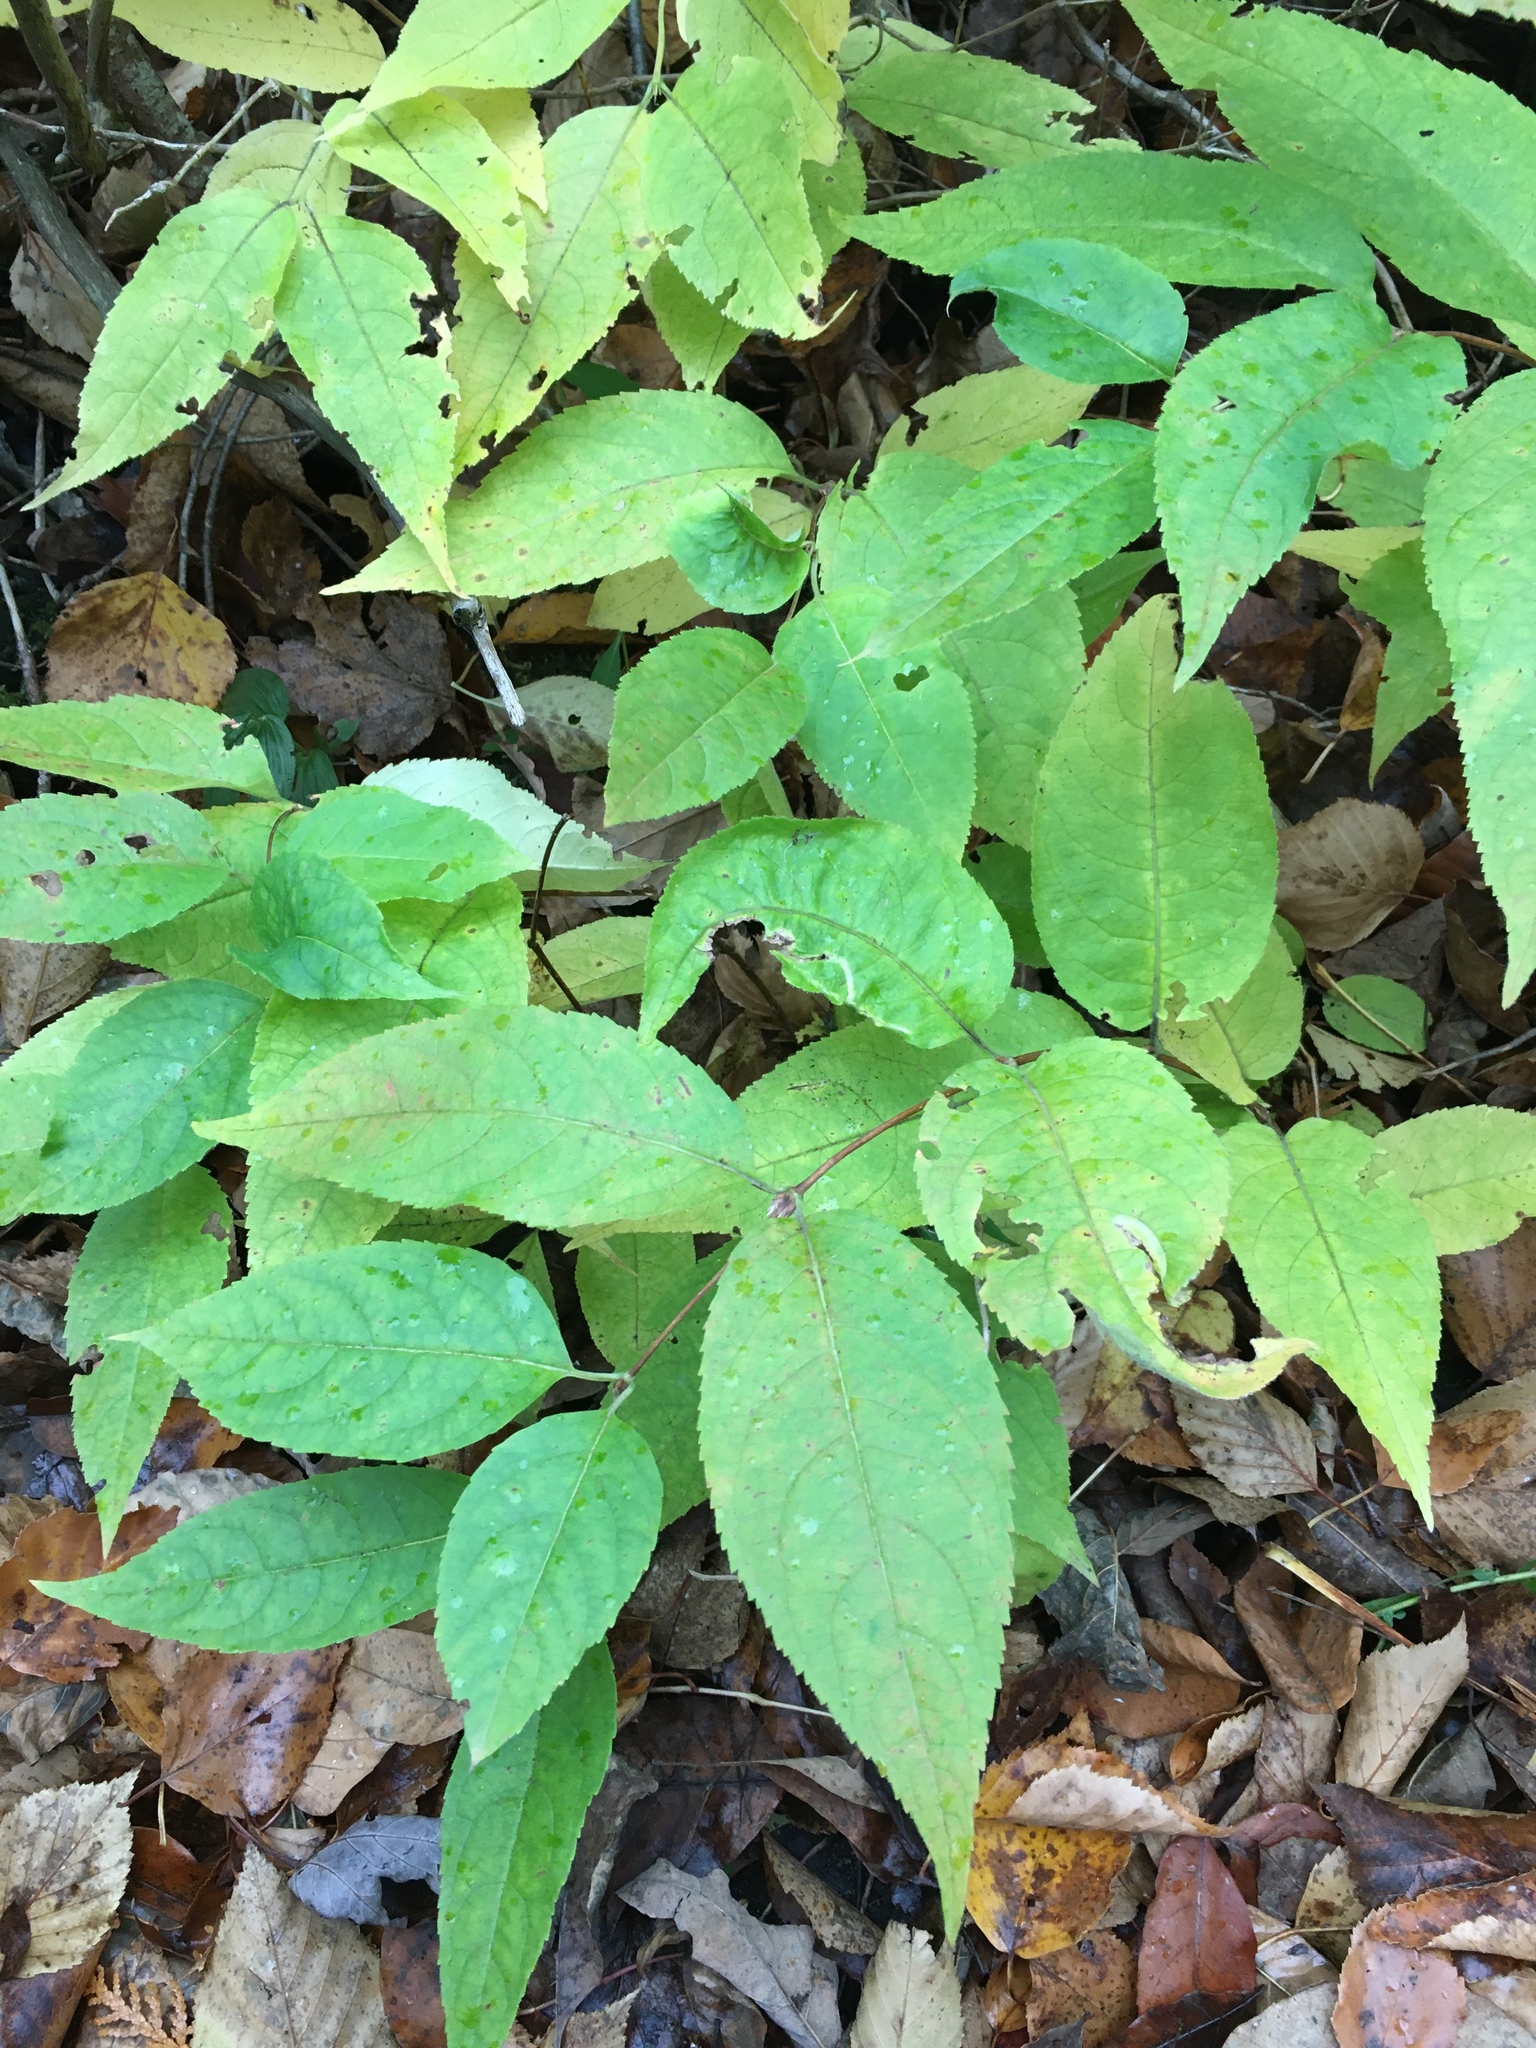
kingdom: Plantae
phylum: Tracheophyta
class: Magnoliopsida
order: Dipsacales
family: Caprifoliaceae
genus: Diervilla
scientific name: Diervilla lonicera
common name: Bush-honeysuckle
